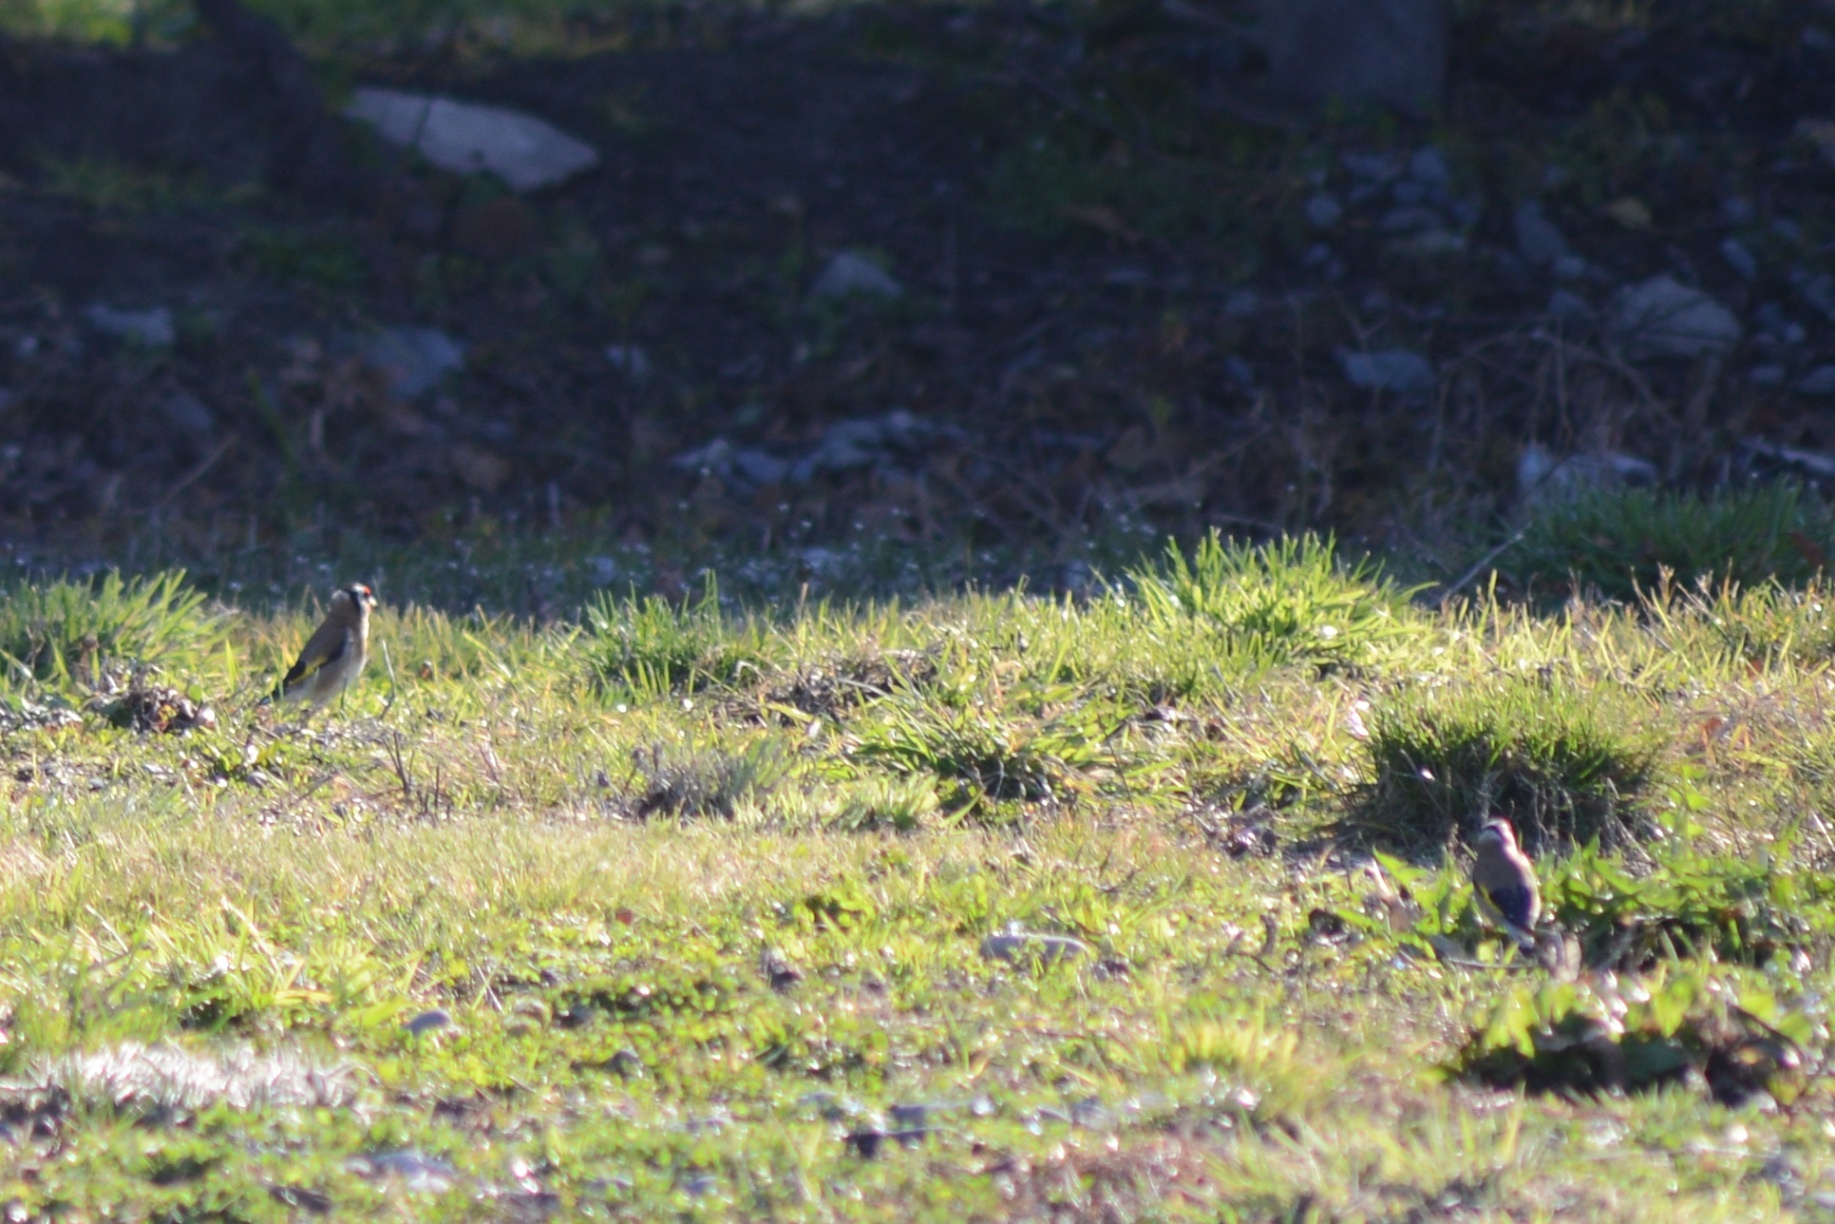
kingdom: Animalia
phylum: Chordata
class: Aves
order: Passeriformes
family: Fringillidae
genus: Carduelis
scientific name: Carduelis carduelis
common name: European goldfinch
